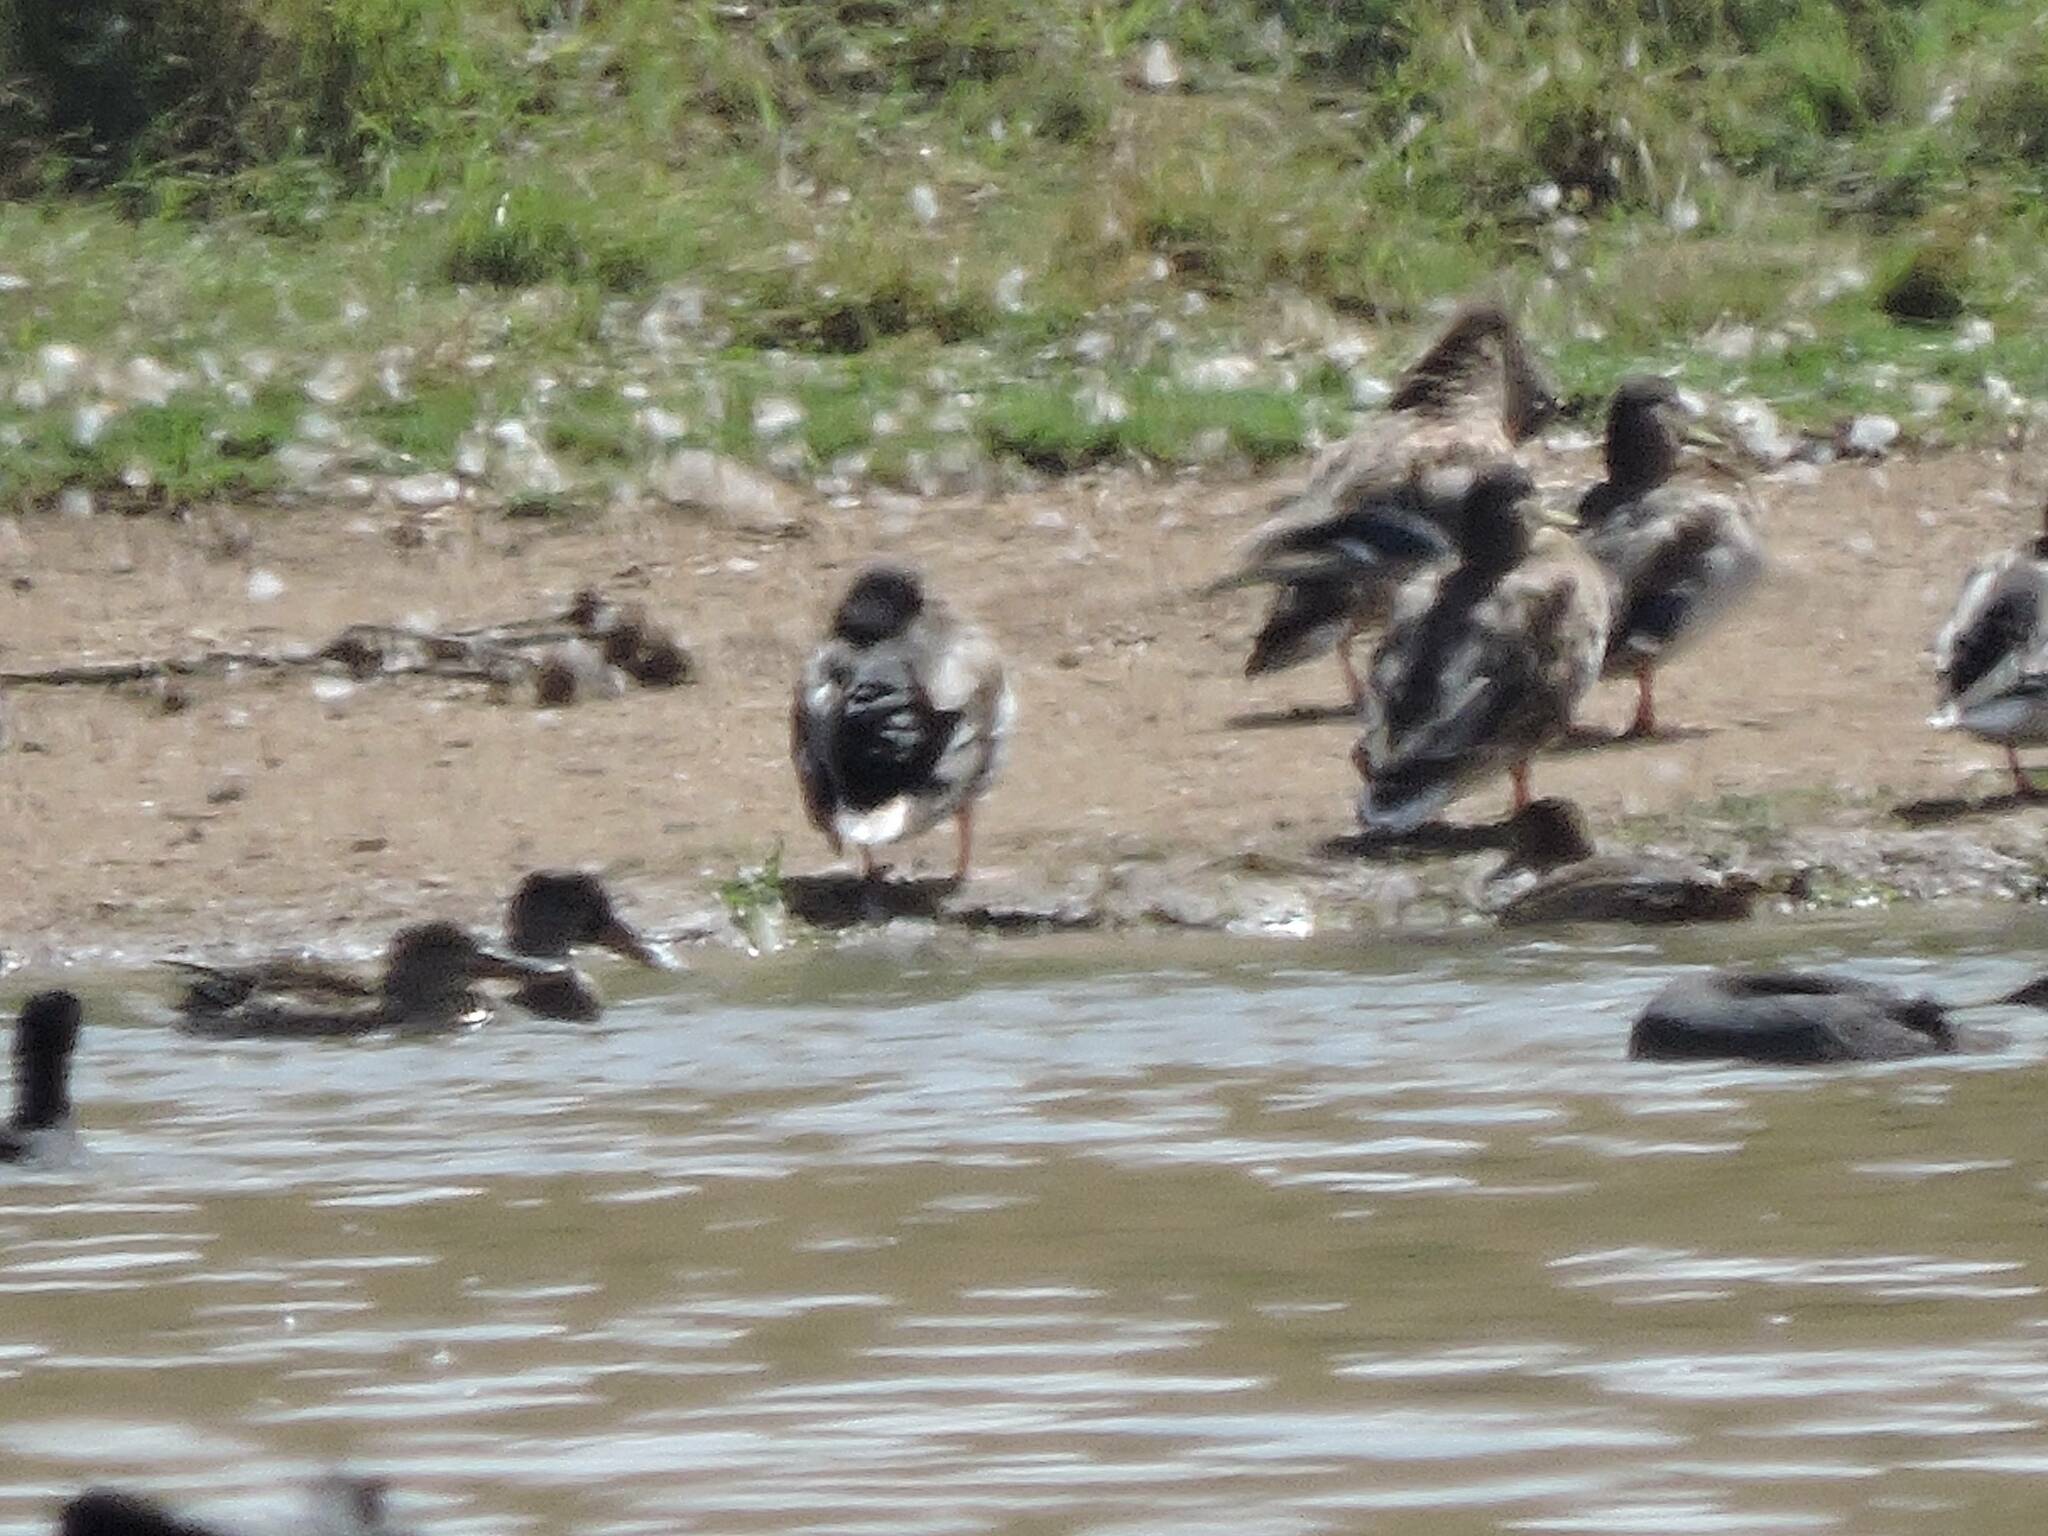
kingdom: Animalia
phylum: Chordata
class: Aves
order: Anseriformes
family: Anatidae
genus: Anas
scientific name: Anas platyrhynchos
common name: Mallard
